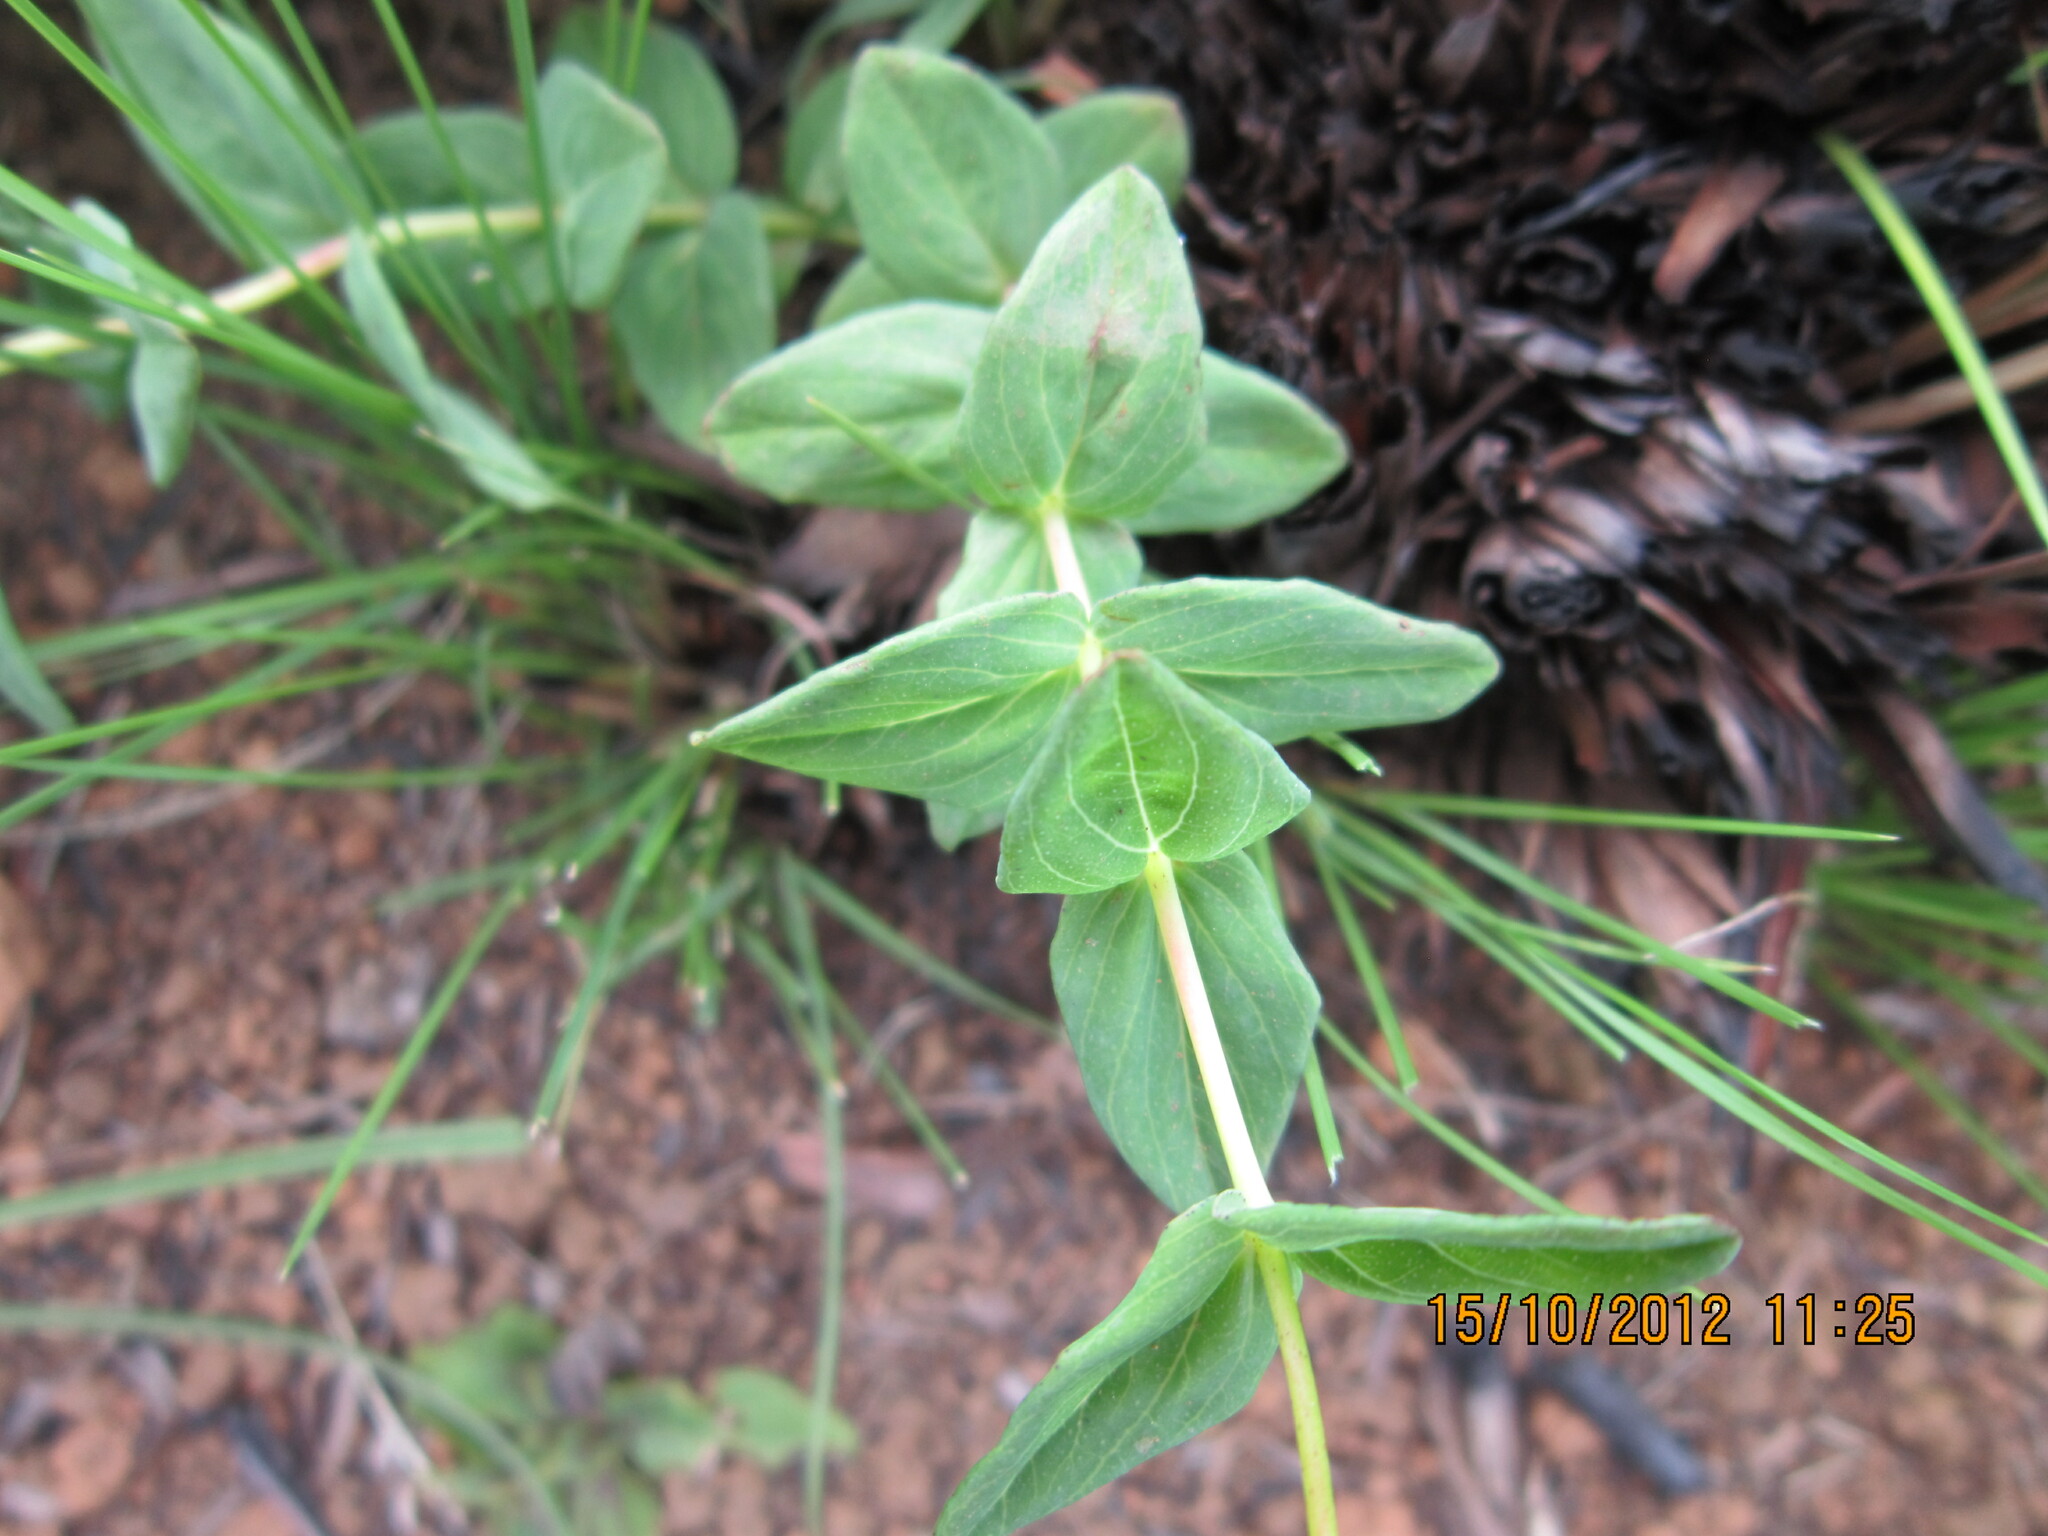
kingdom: Plantae
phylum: Tracheophyta
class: Magnoliopsida
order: Malpighiales
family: Hypericaceae
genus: Hypericum
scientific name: Hypericum aethiopicum
